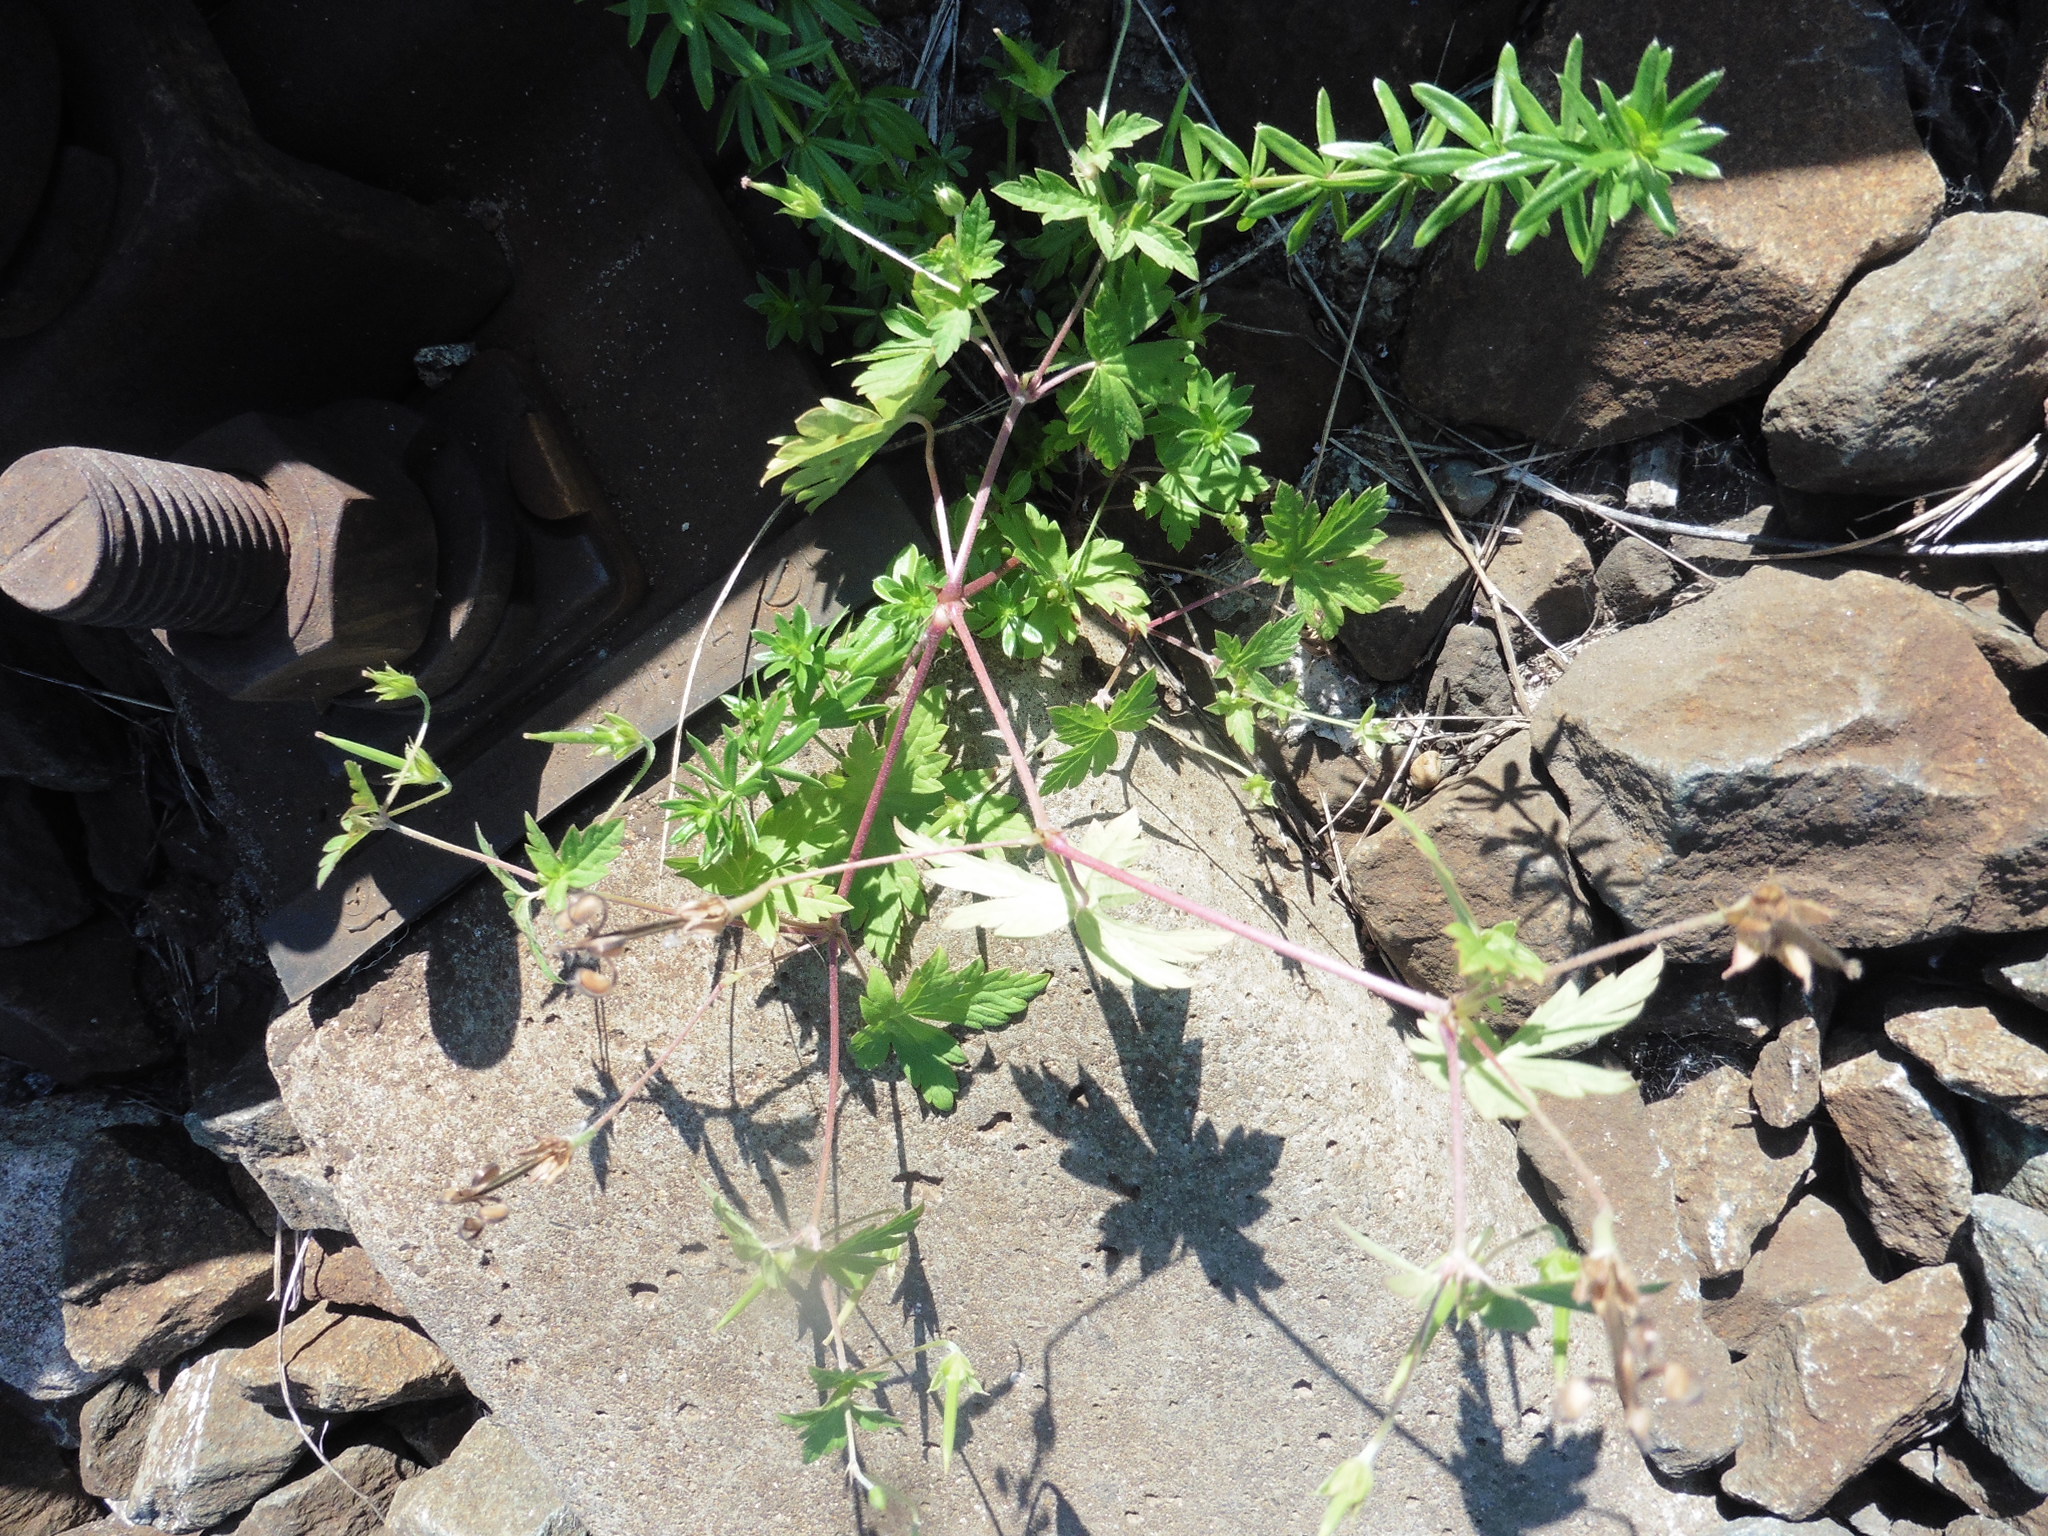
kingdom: Plantae
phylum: Tracheophyta
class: Magnoliopsida
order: Geraniales
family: Geraniaceae
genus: Geranium
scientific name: Geranium sibiricum
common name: Siberian crane's-bill
